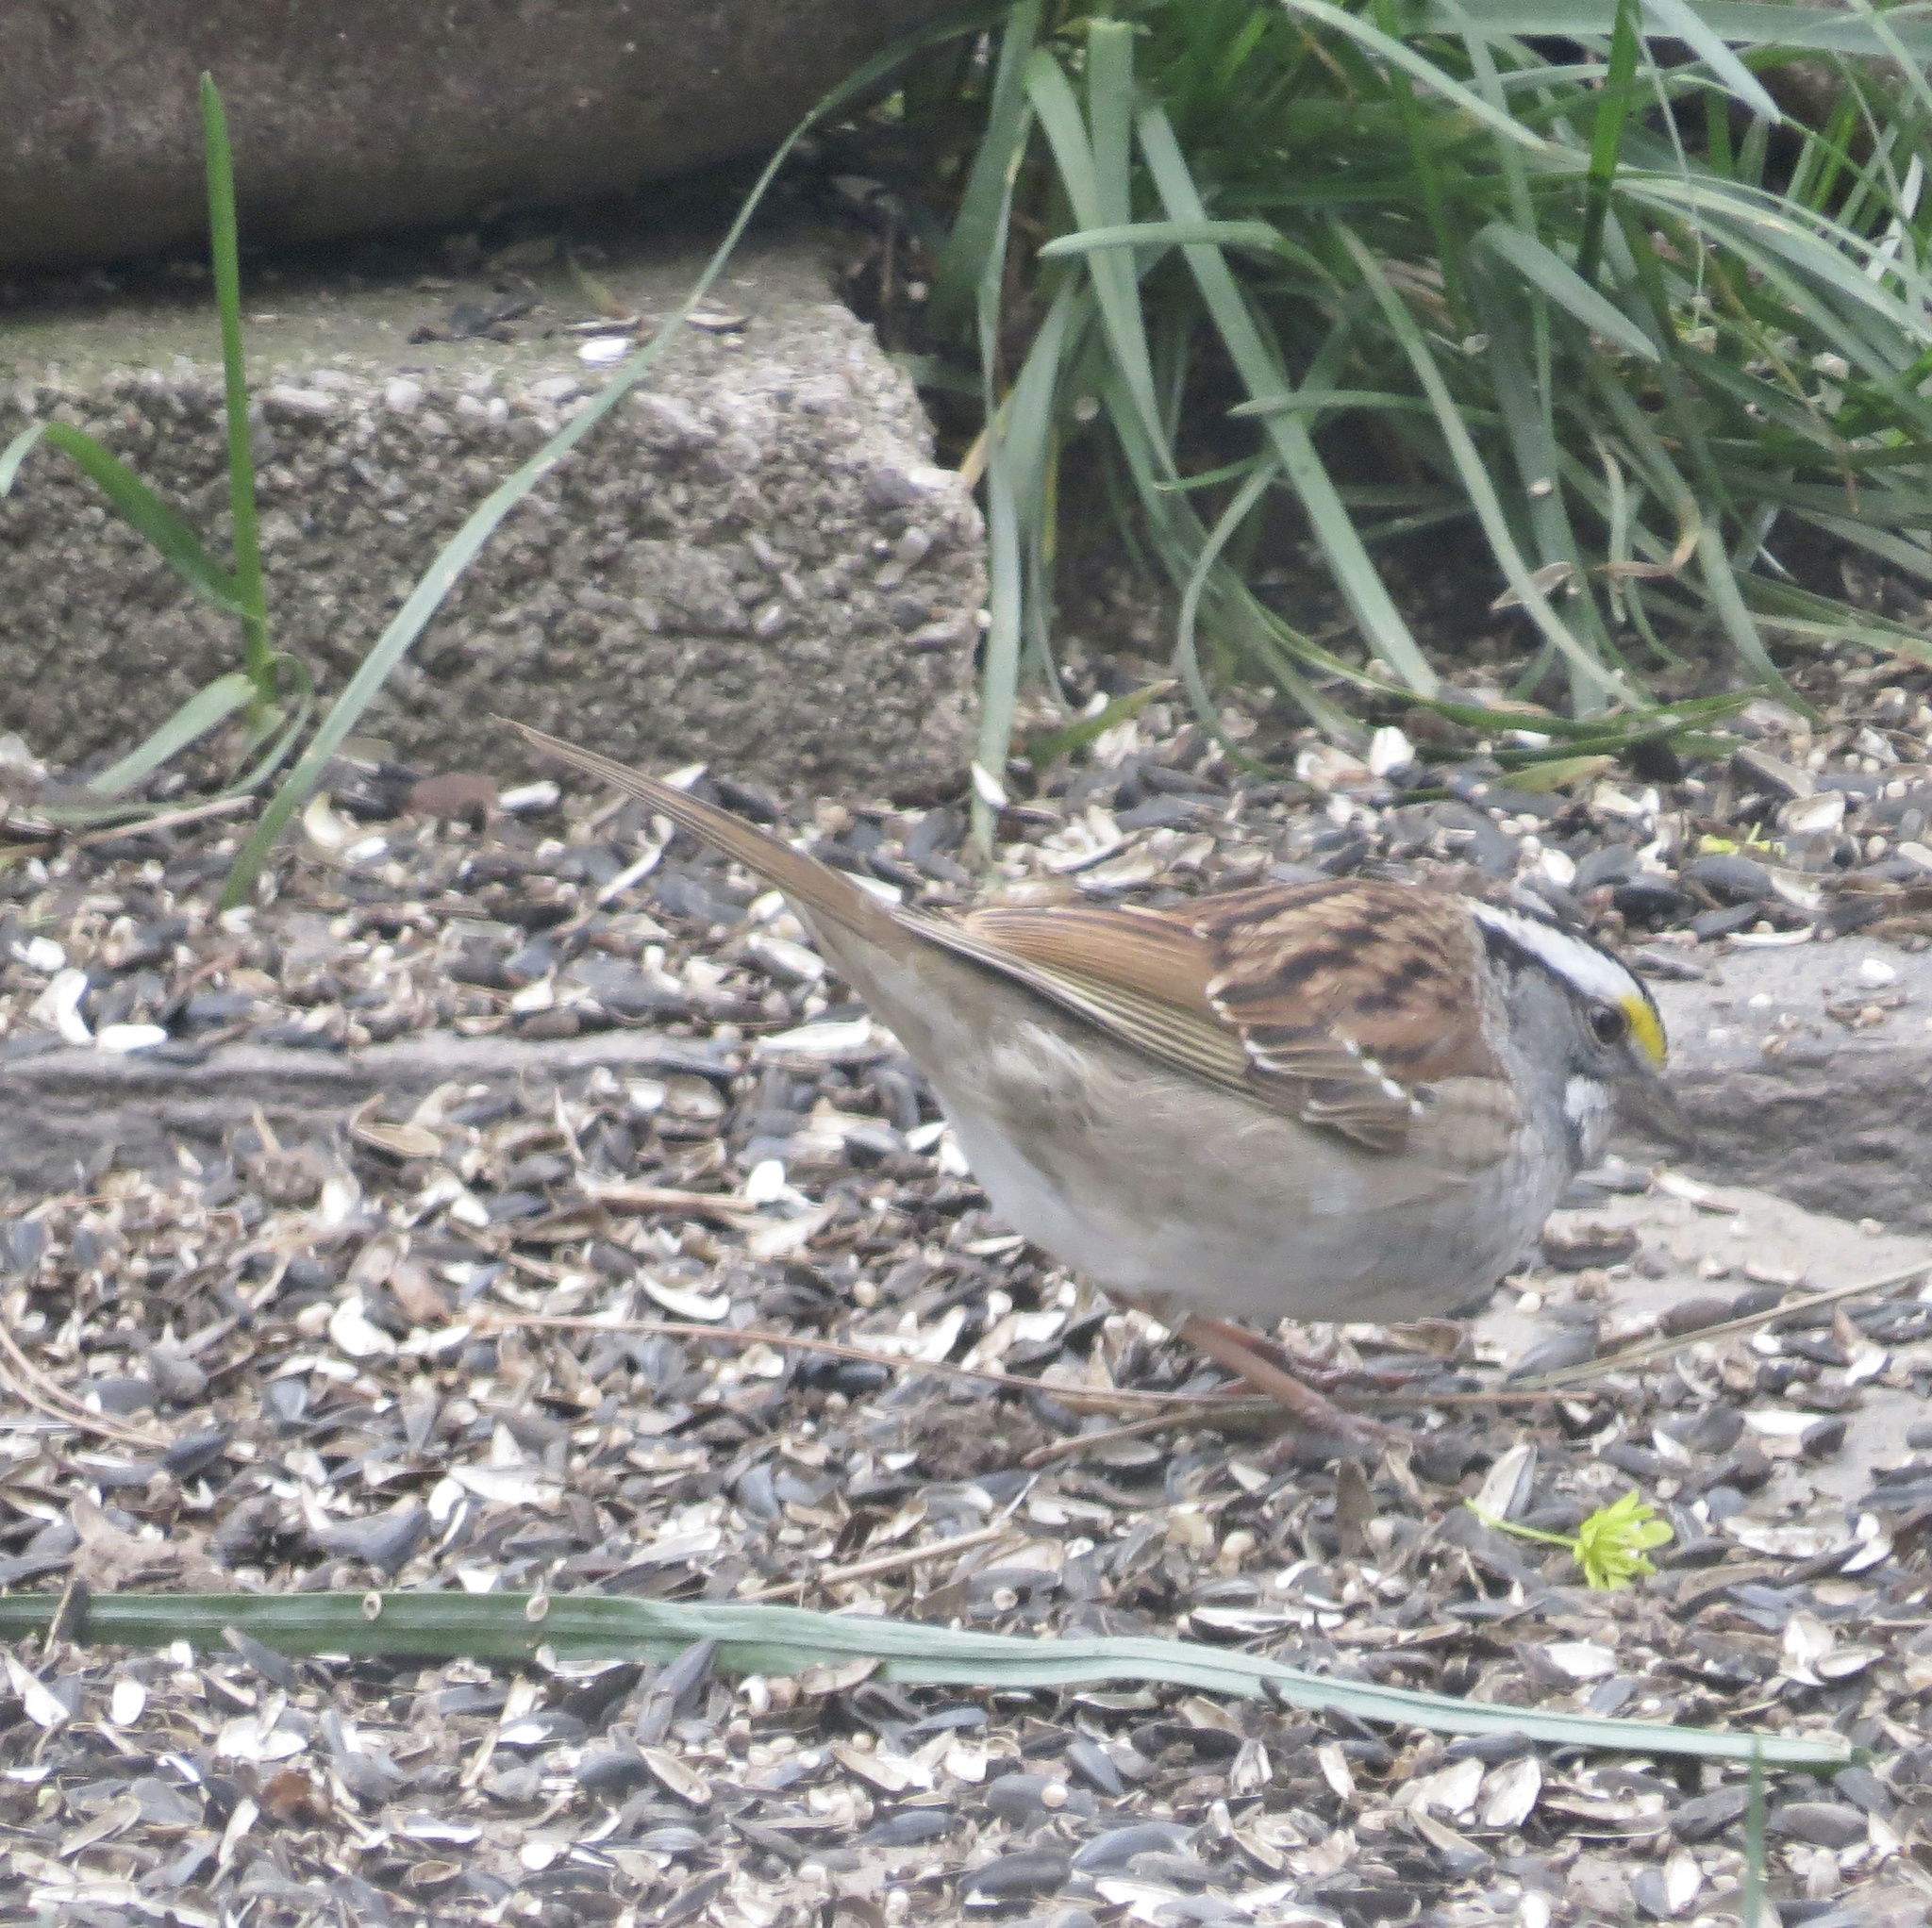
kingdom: Animalia
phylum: Chordata
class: Aves
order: Passeriformes
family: Passerellidae
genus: Zonotrichia
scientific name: Zonotrichia albicollis
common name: White-throated sparrow
